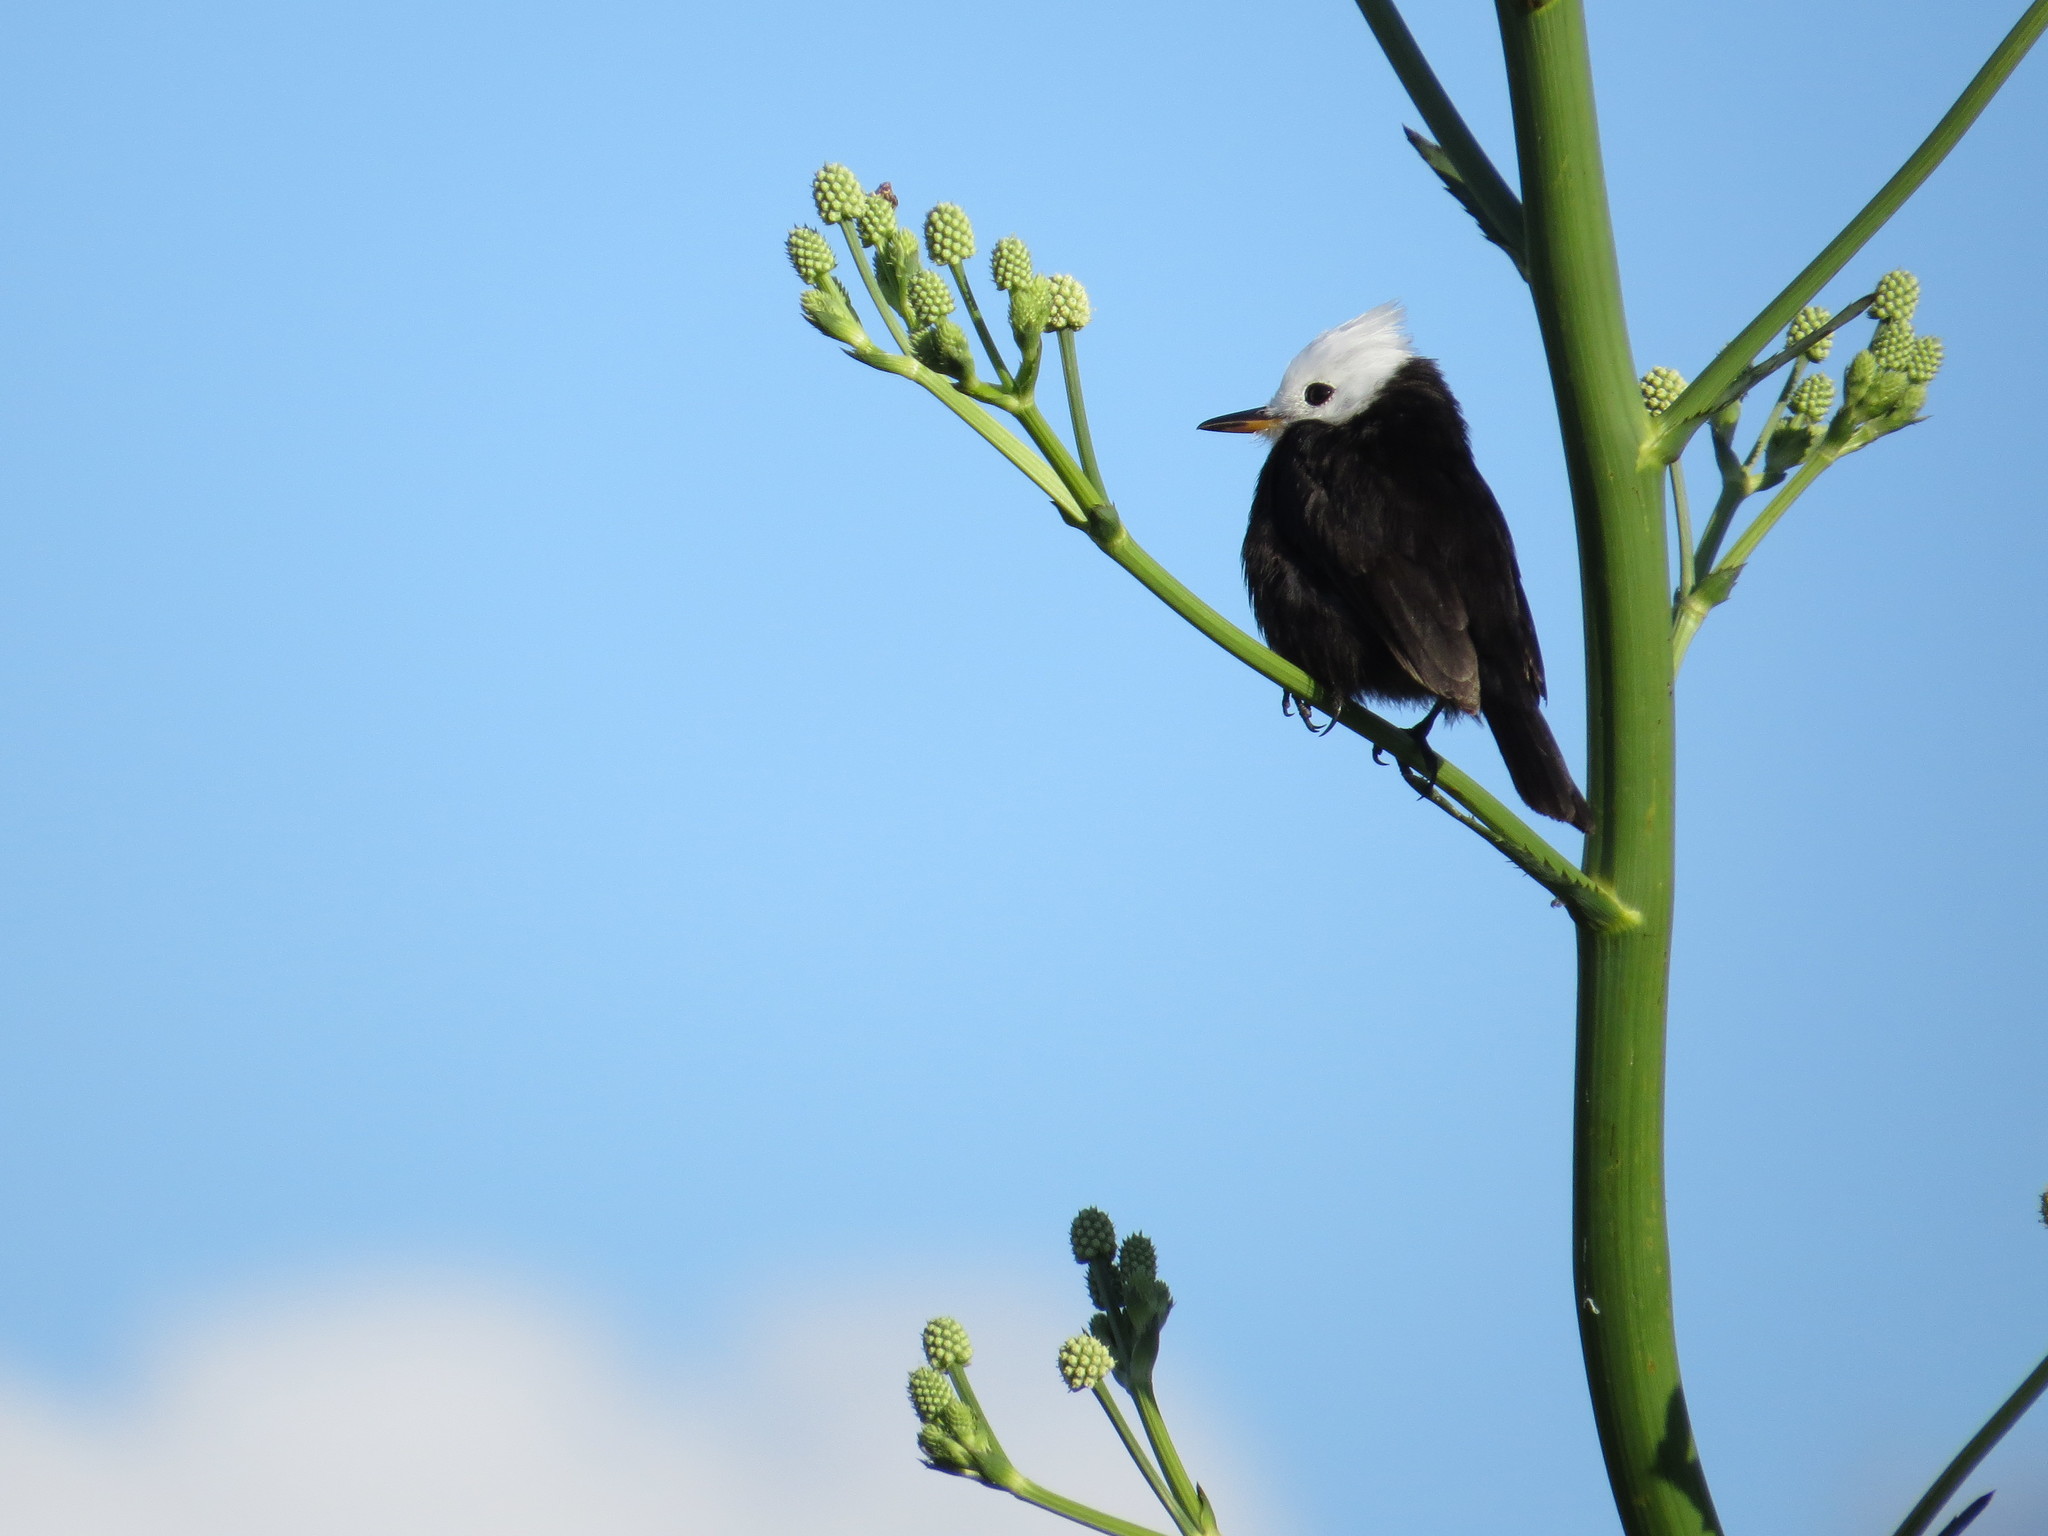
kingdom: Animalia
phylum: Chordata
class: Aves
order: Passeriformes
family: Tyrannidae
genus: Arundinicola
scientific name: Arundinicola leucocephala
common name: White-headed marsh tyrant
